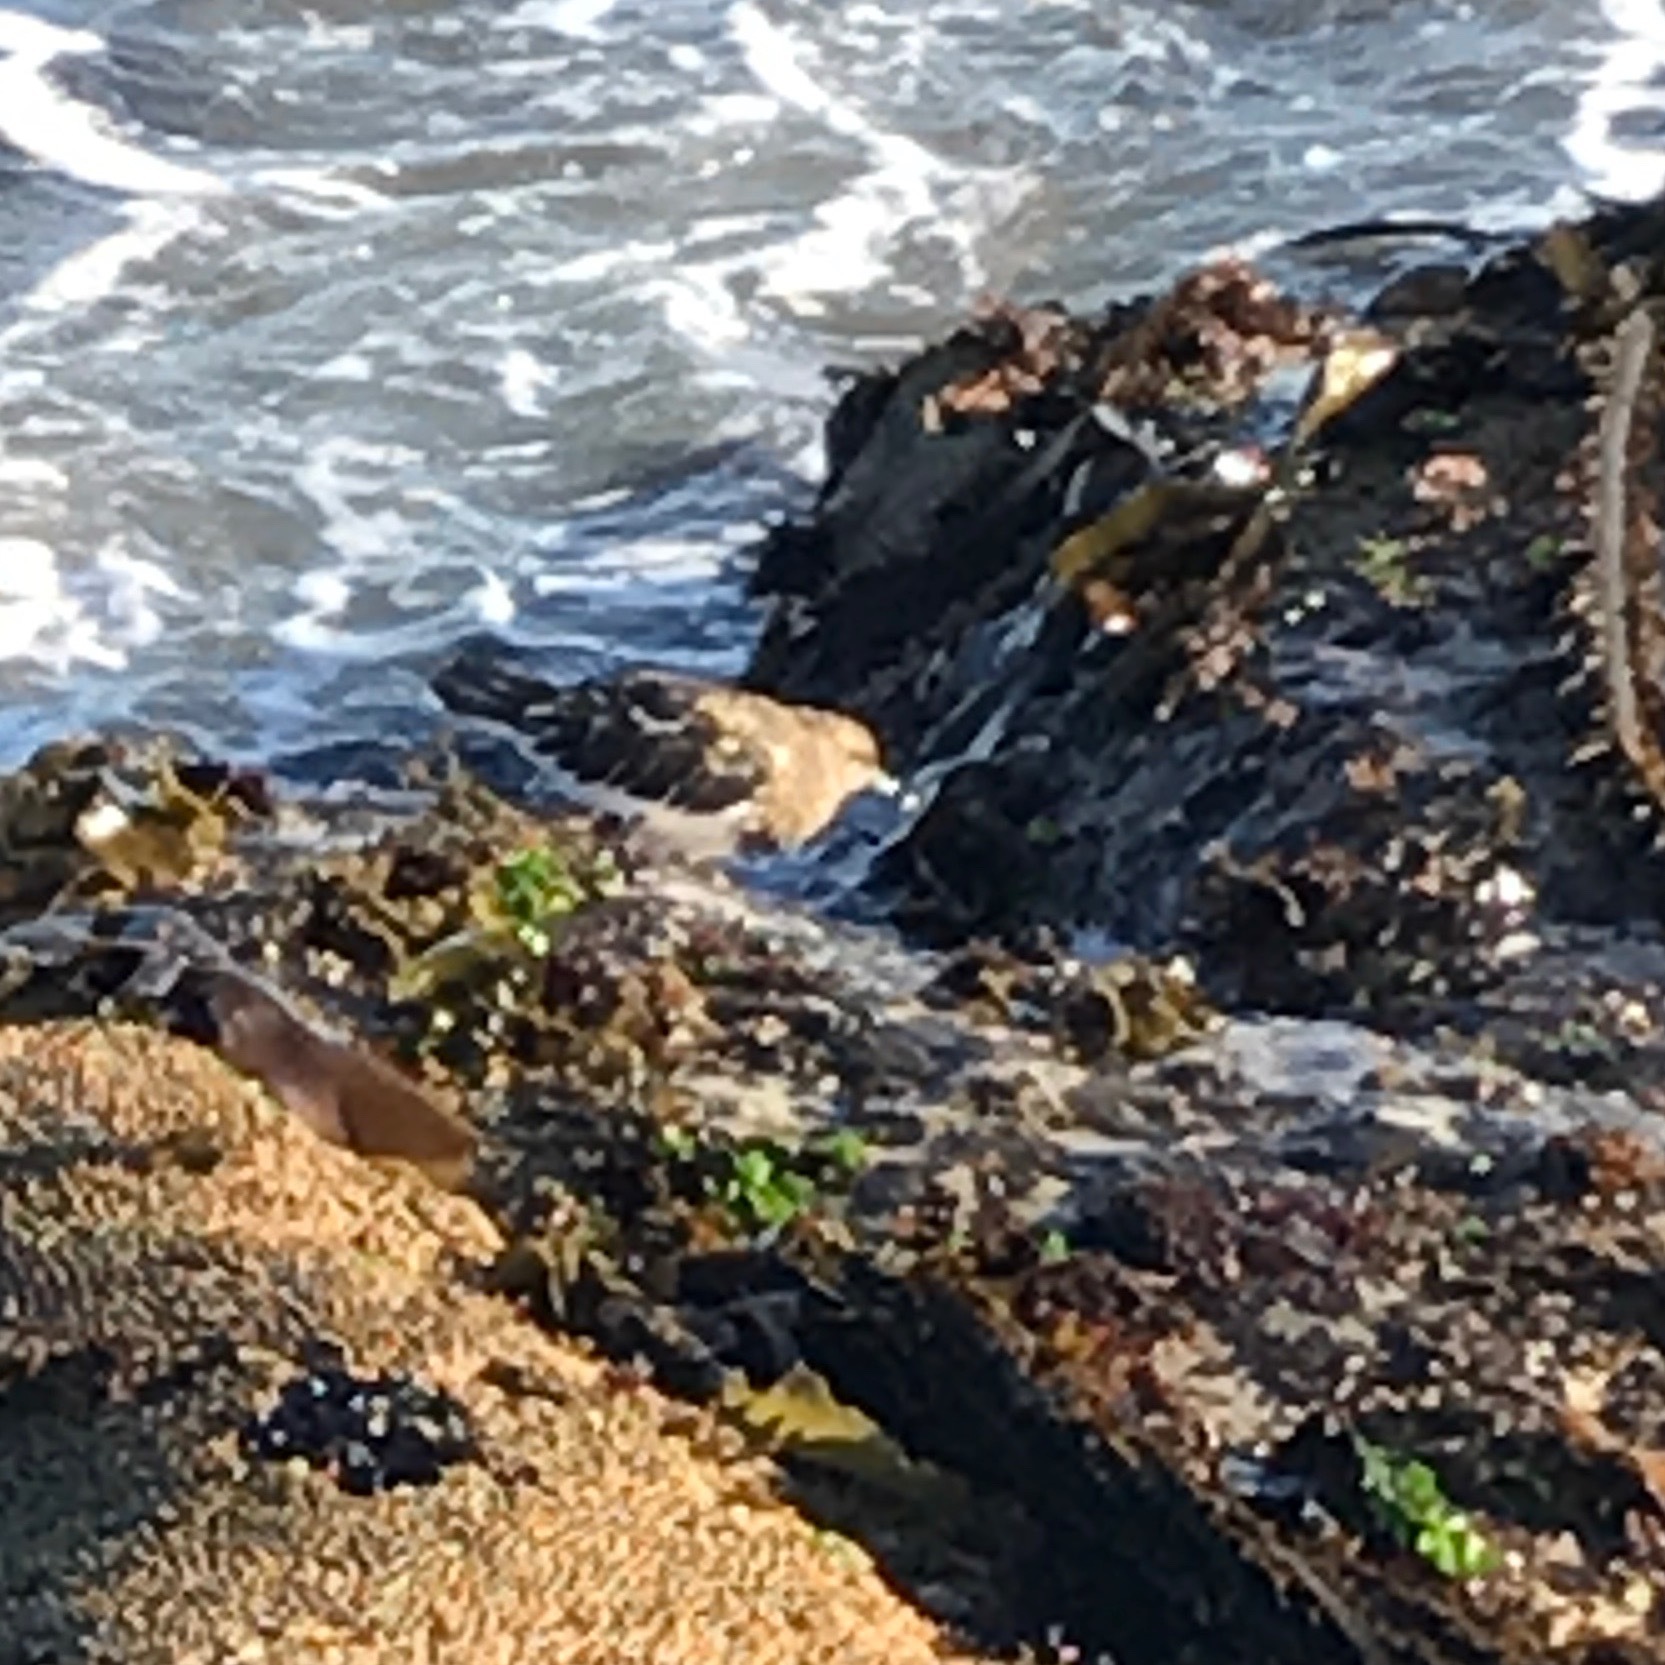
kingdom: Animalia
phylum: Chordata
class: Aves
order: Charadriiformes
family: Scolopacidae
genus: Arenaria
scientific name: Arenaria melanocephala
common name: Black turnstone
